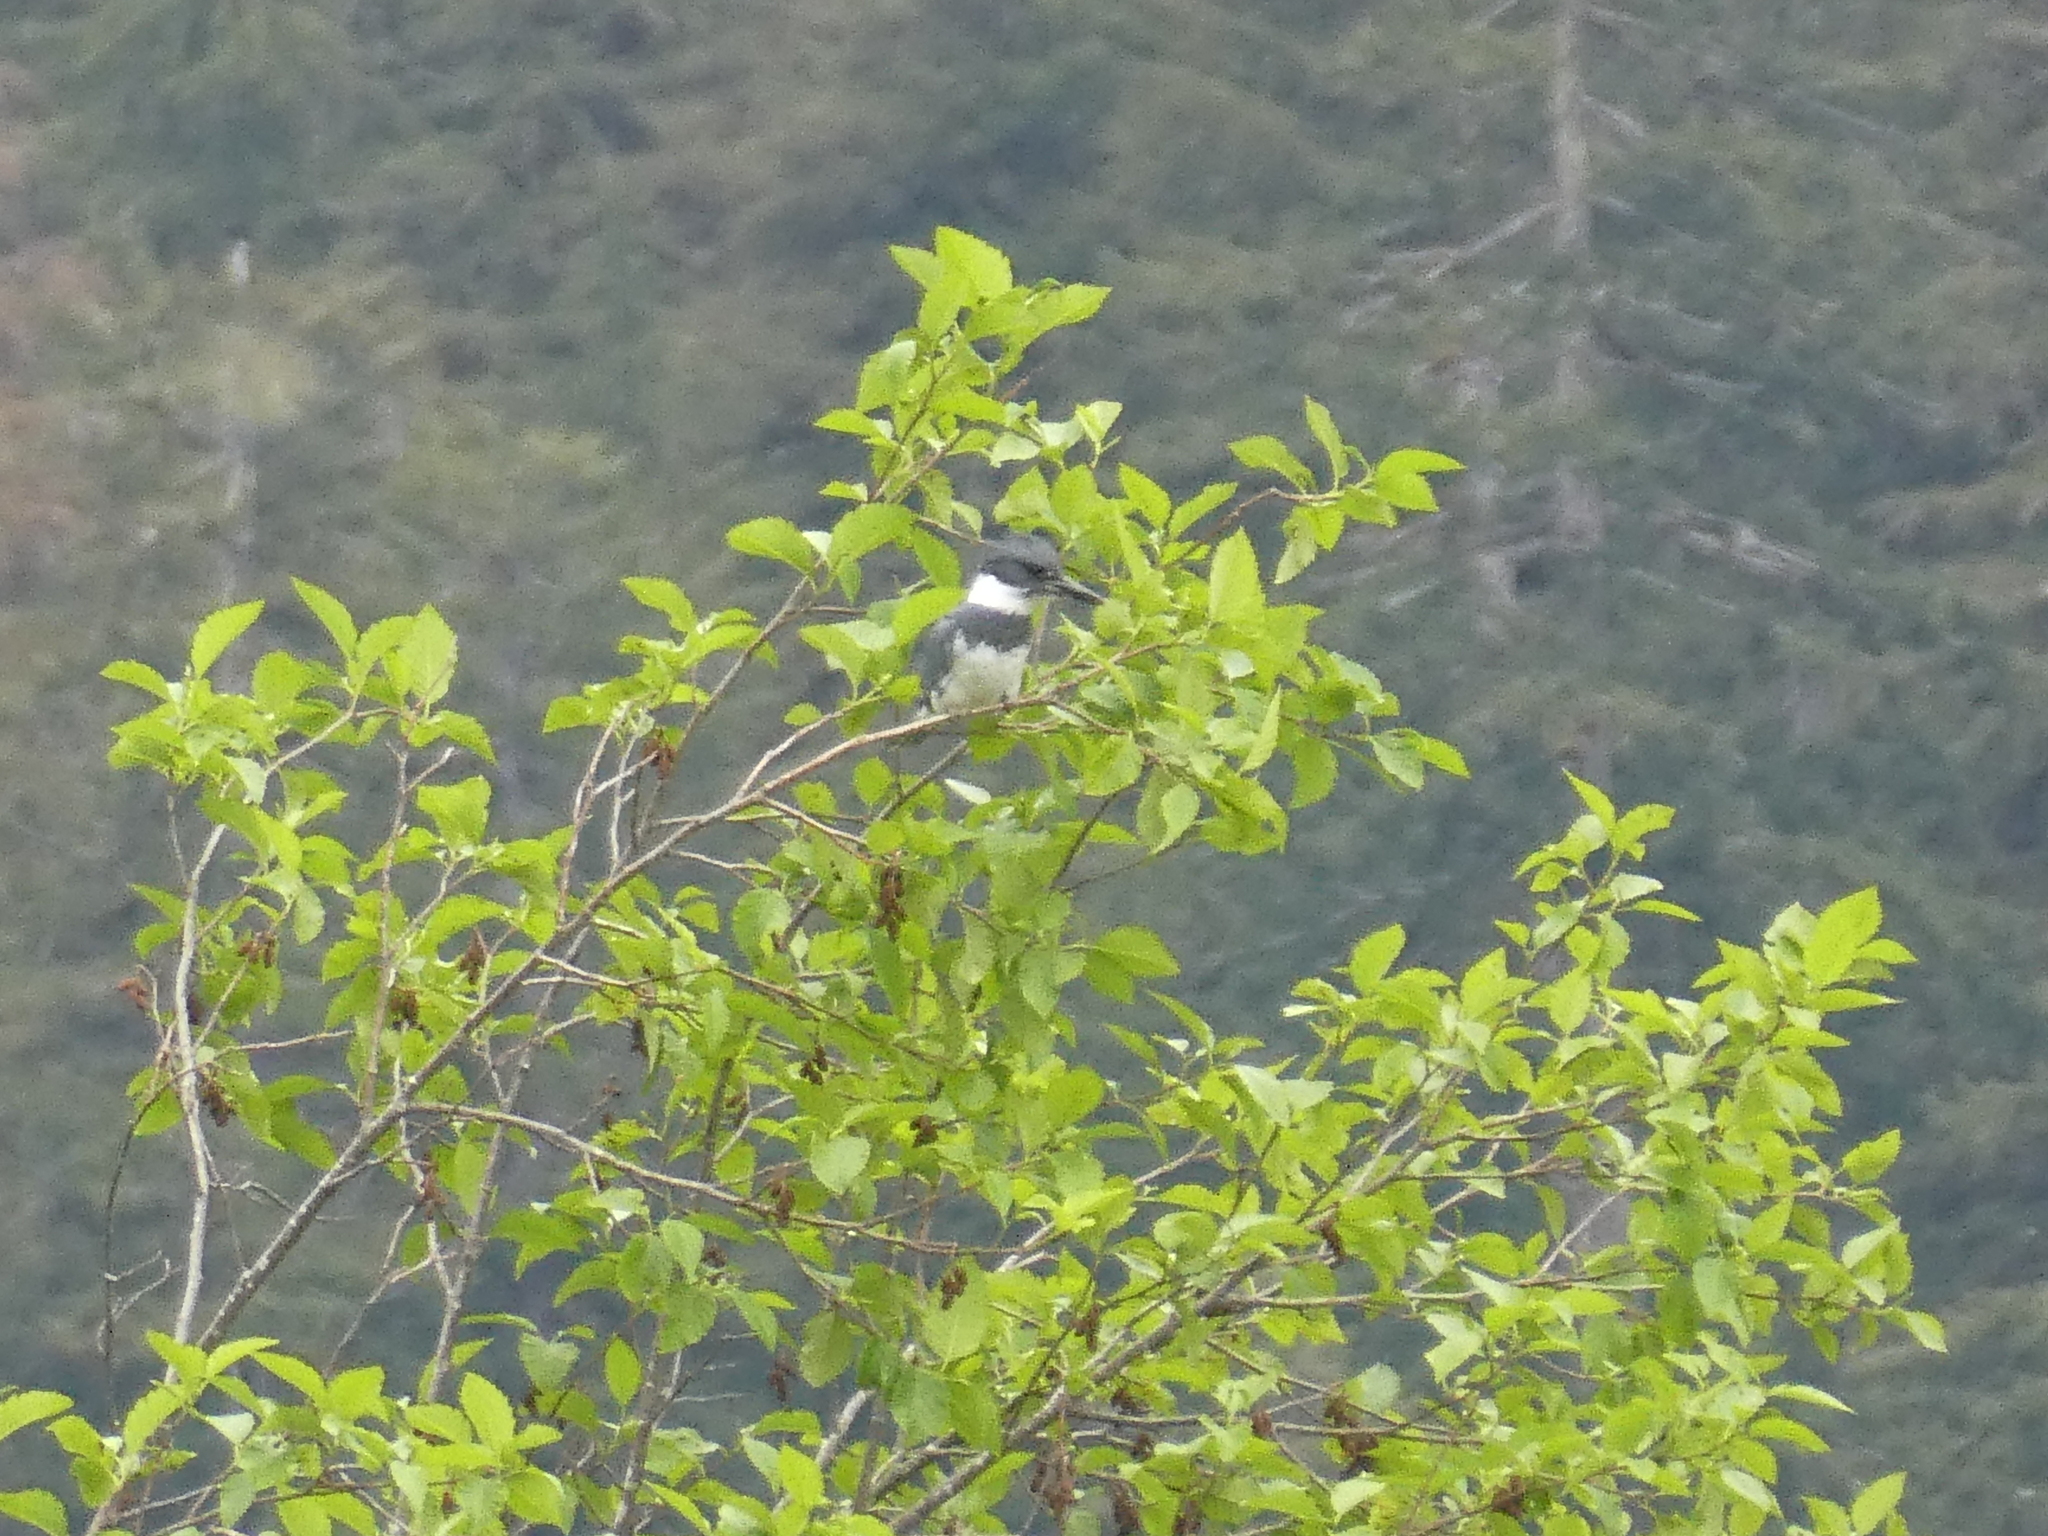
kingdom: Animalia
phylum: Chordata
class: Aves
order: Coraciiformes
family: Alcedinidae
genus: Megaceryle
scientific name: Megaceryle alcyon
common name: Belted kingfisher
